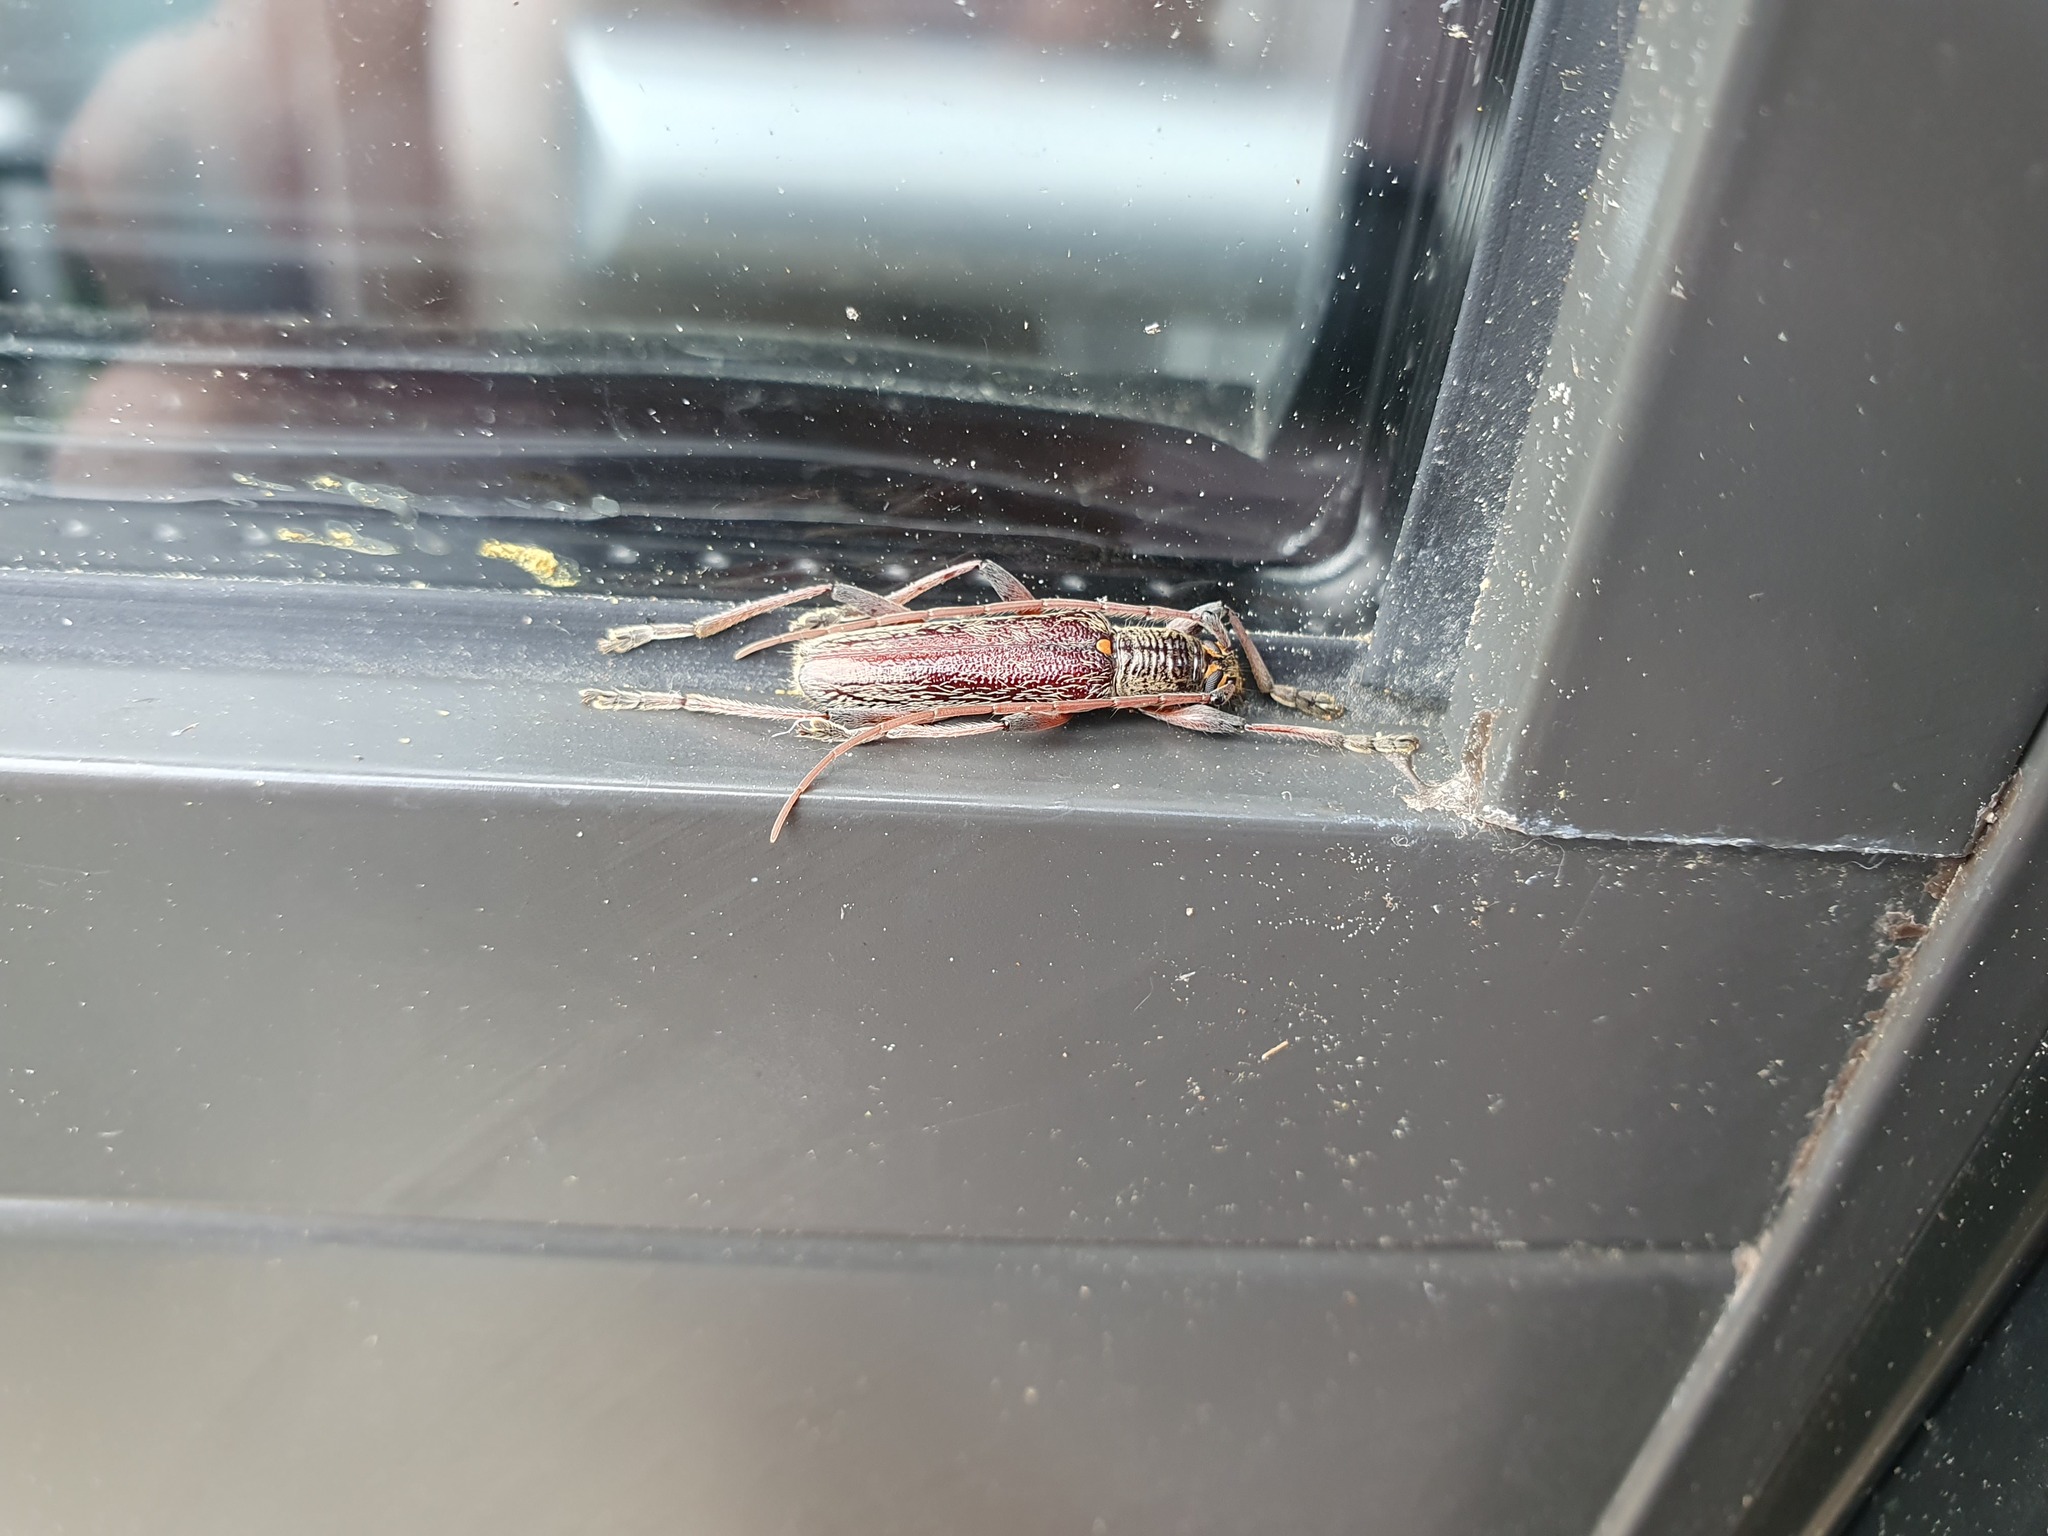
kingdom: Animalia
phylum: Arthropoda
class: Insecta
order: Coleoptera
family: Cerambycidae
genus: Oemona
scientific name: Oemona hirta
